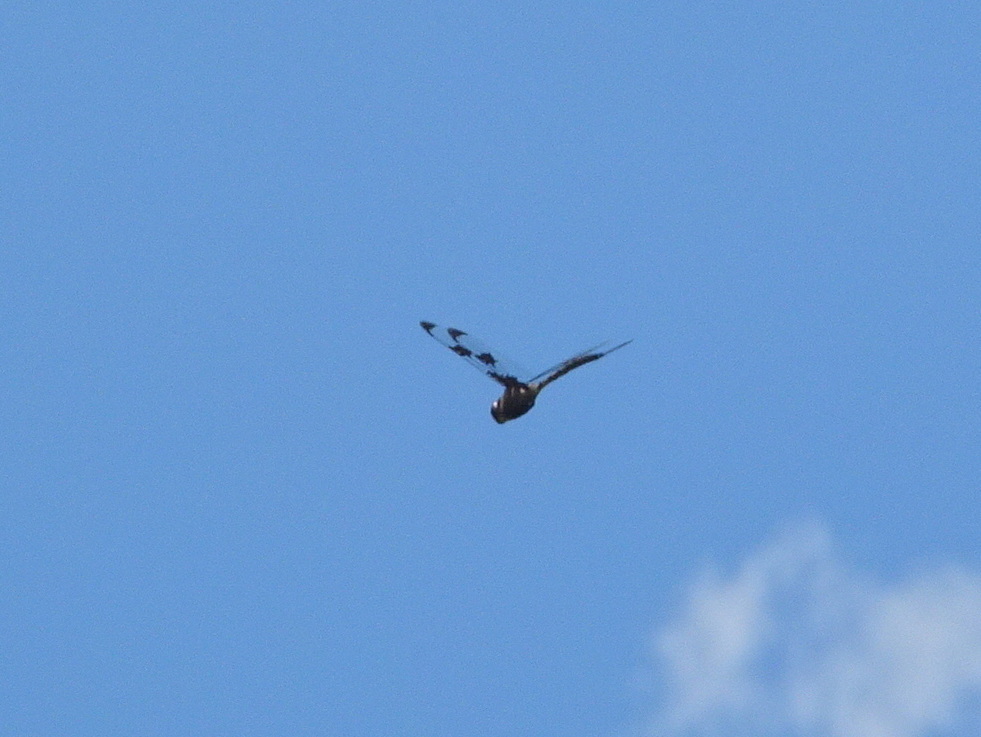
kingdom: Animalia
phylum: Arthropoda
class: Insecta
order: Odonata
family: Corduliidae
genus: Epitheca
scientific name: Epitheca princeps
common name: Prince baskettail
